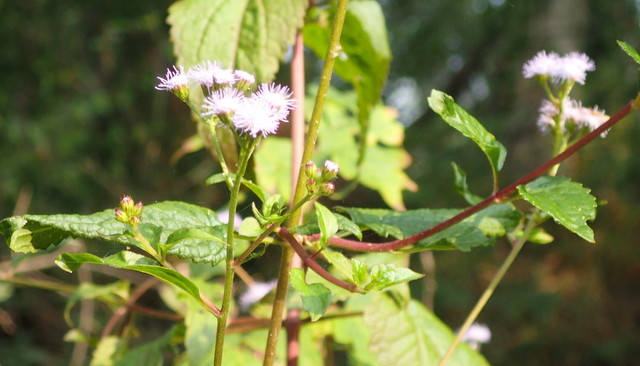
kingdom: Plantae
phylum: Tracheophyta
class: Magnoliopsida
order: Asterales
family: Asteraceae
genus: Conoclinium
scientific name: Conoclinium coelestinum
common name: Blue mistflower
